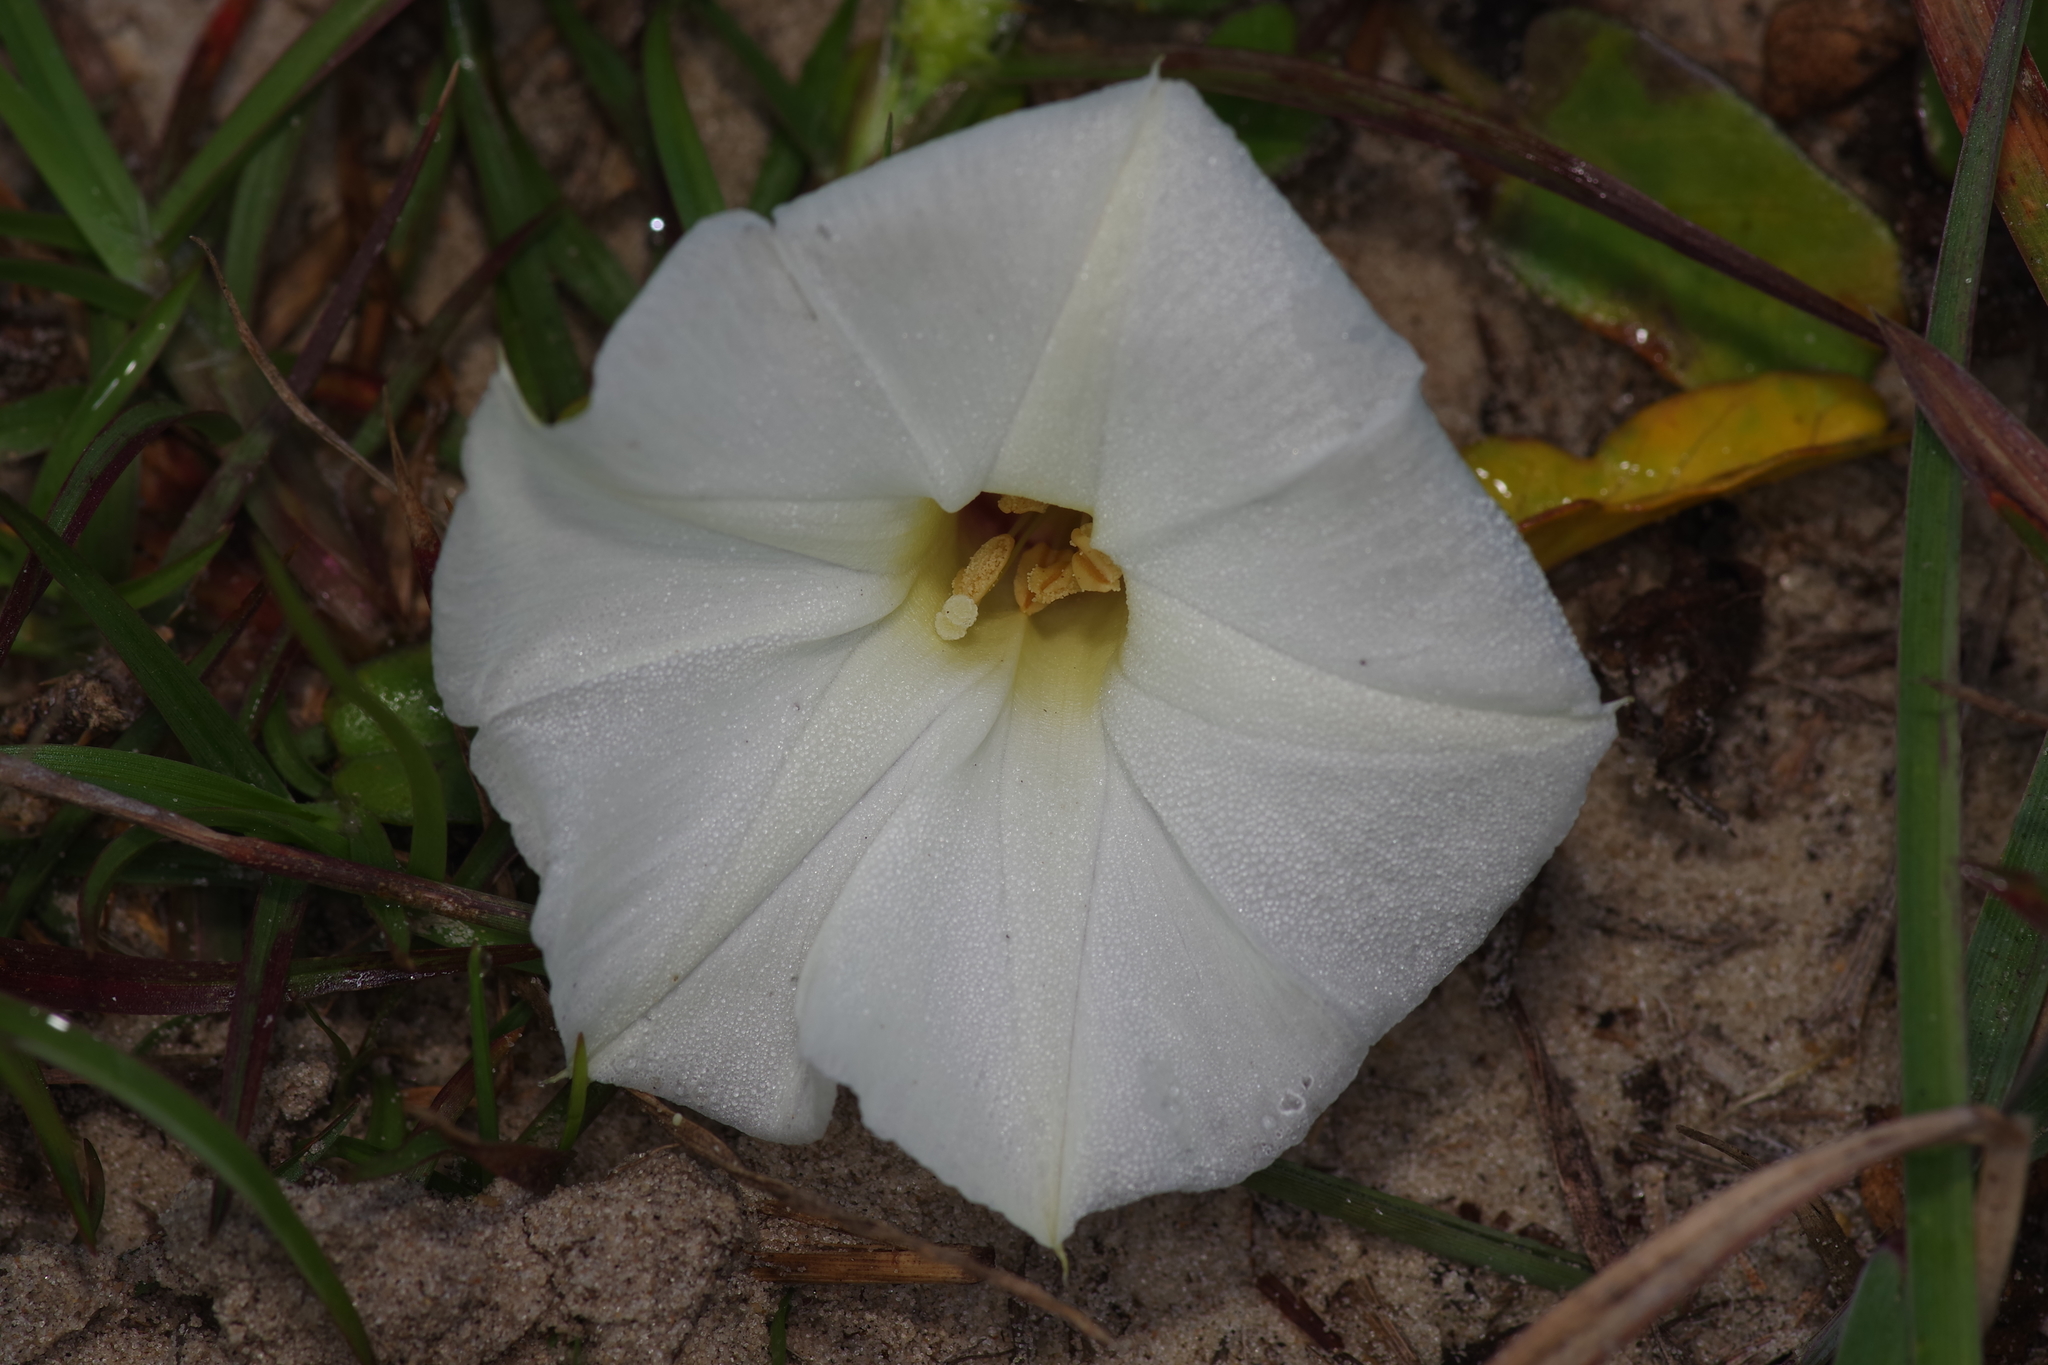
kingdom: Plantae
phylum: Tracheophyta
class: Magnoliopsida
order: Solanales
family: Convolvulaceae
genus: Ipomoea
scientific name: Ipomoea imperati
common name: Fiddle-leaf morning-glory
